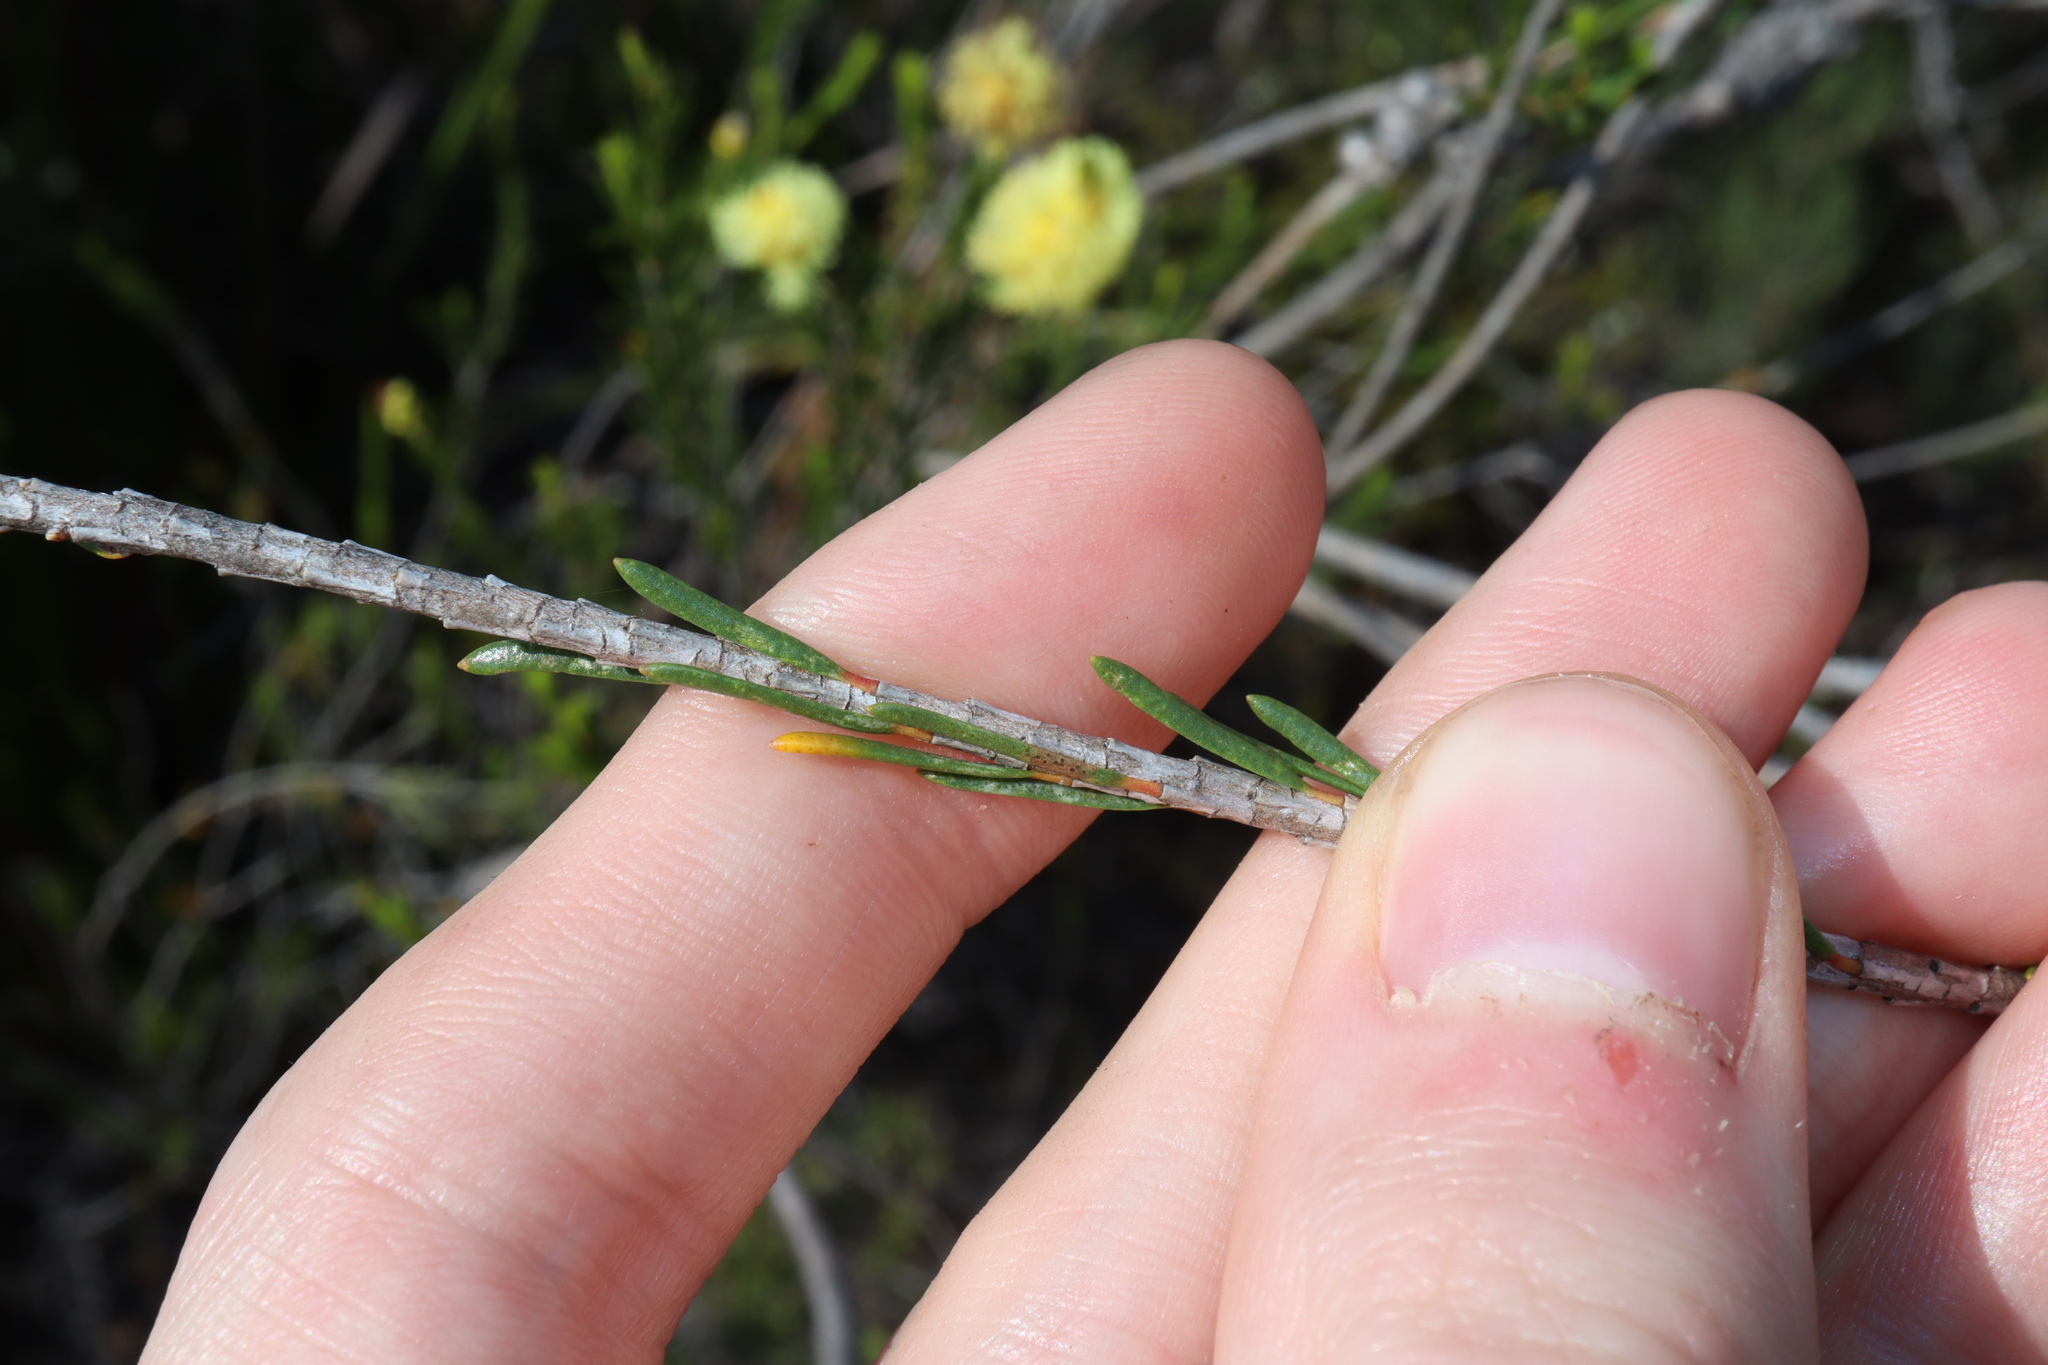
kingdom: Plantae
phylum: Tracheophyta
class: Magnoliopsida
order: Myrtales
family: Myrtaceae
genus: Melaleuca
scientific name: Melaleuca lutea
